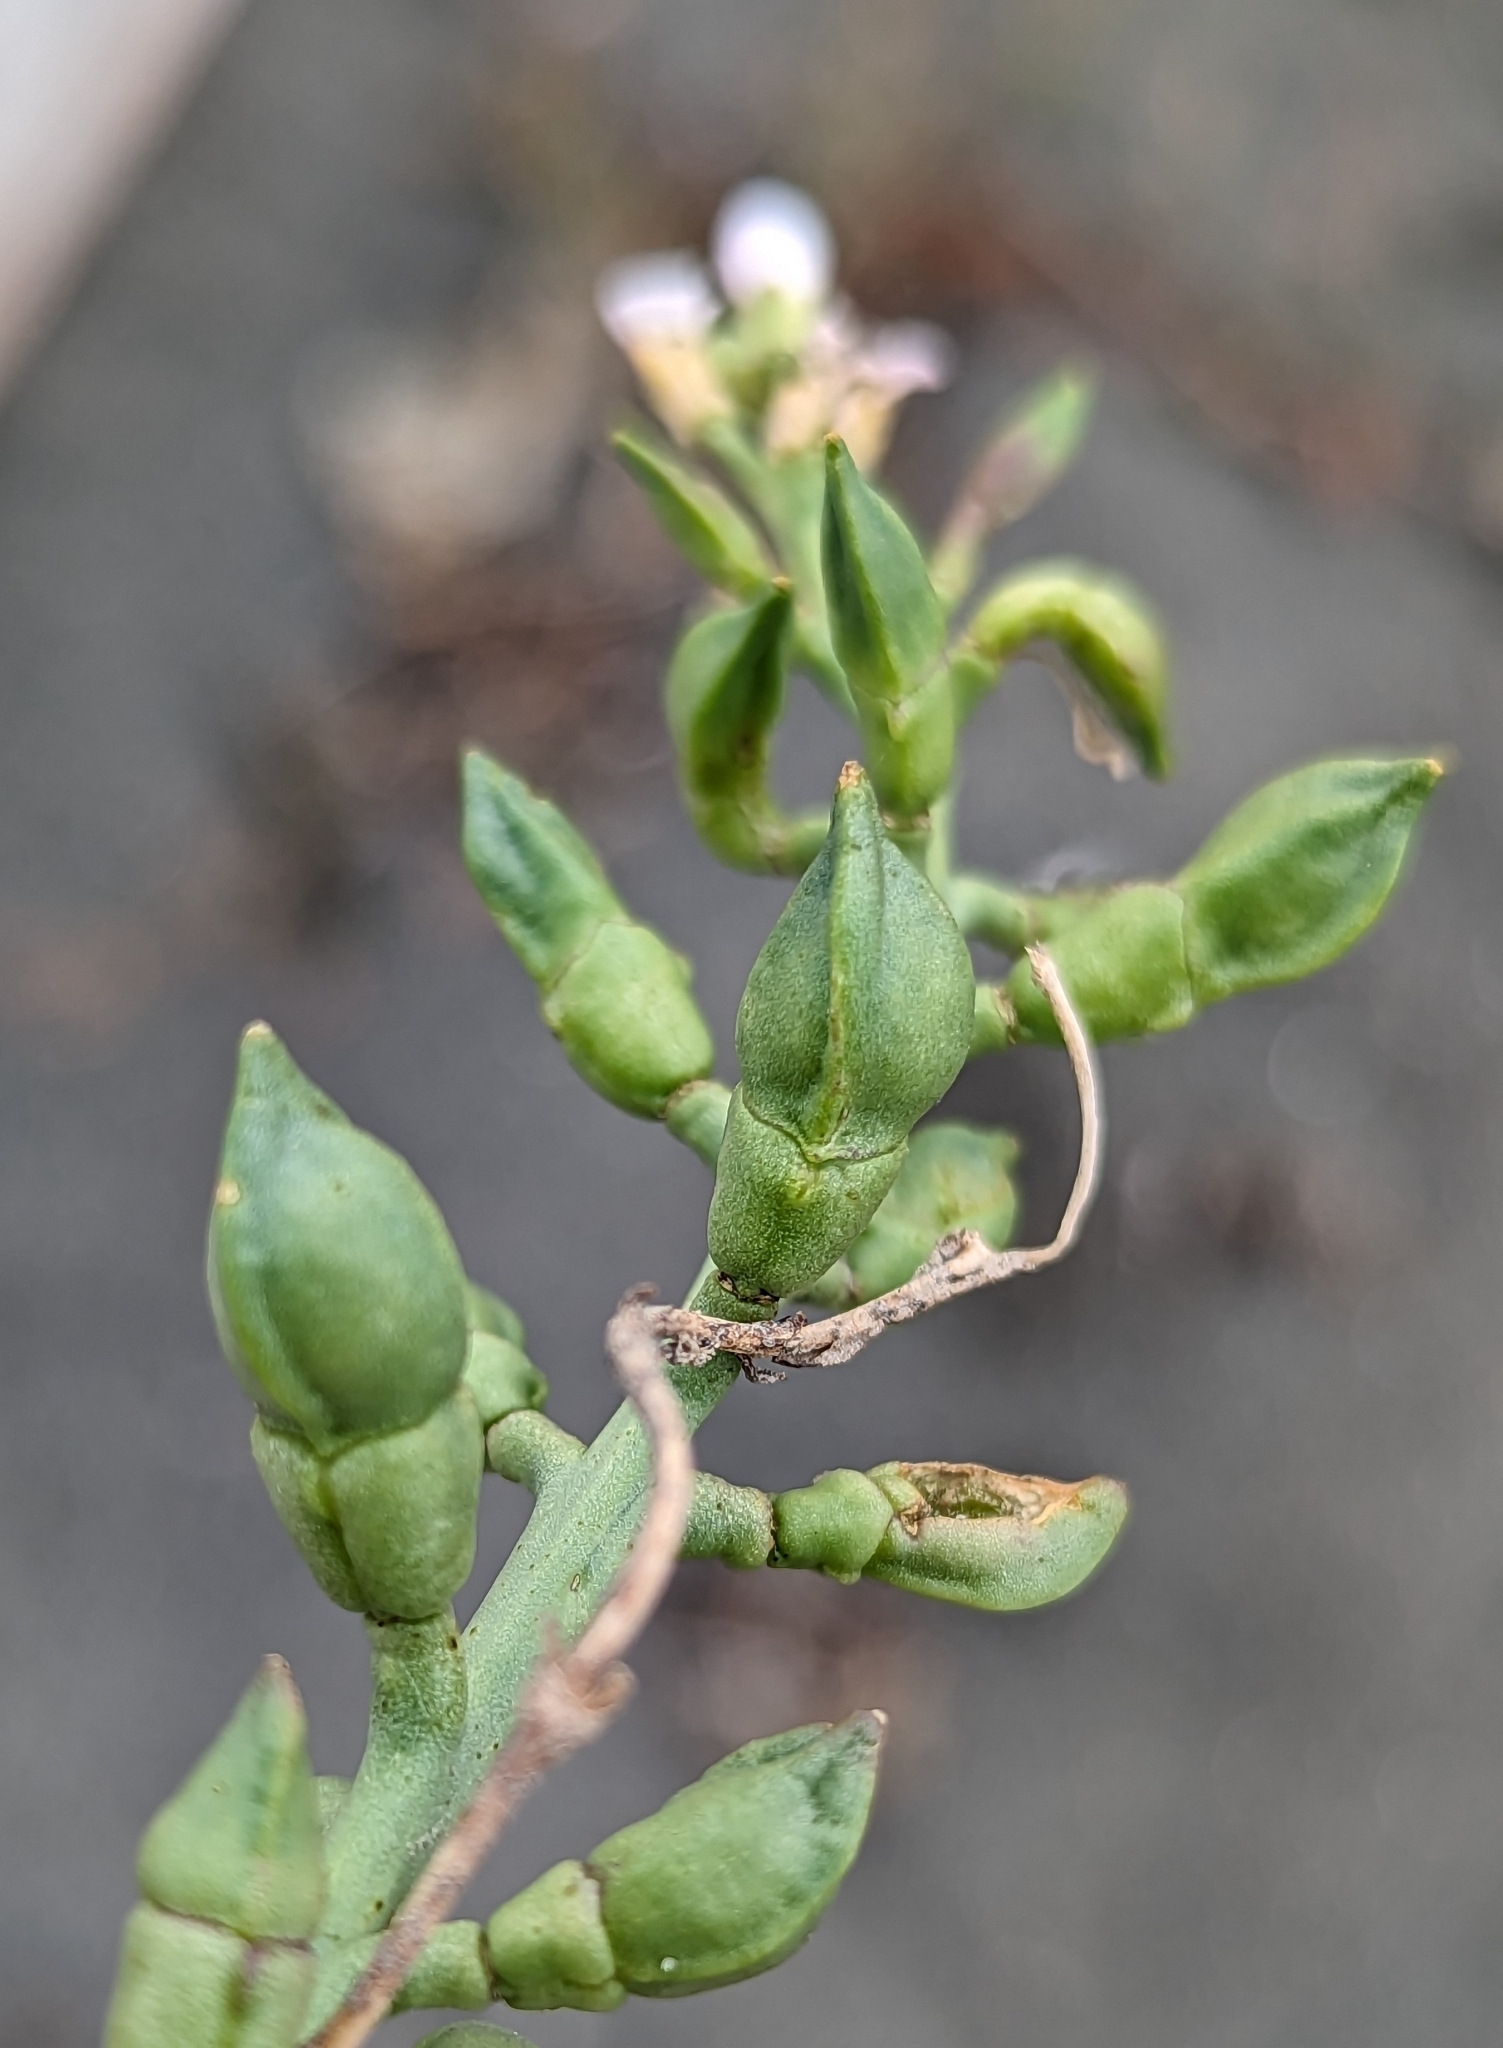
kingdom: Plantae
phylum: Tracheophyta
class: Magnoliopsida
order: Brassicales
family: Brassicaceae
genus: Cakile
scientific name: Cakile maritima
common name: Sea rocket
